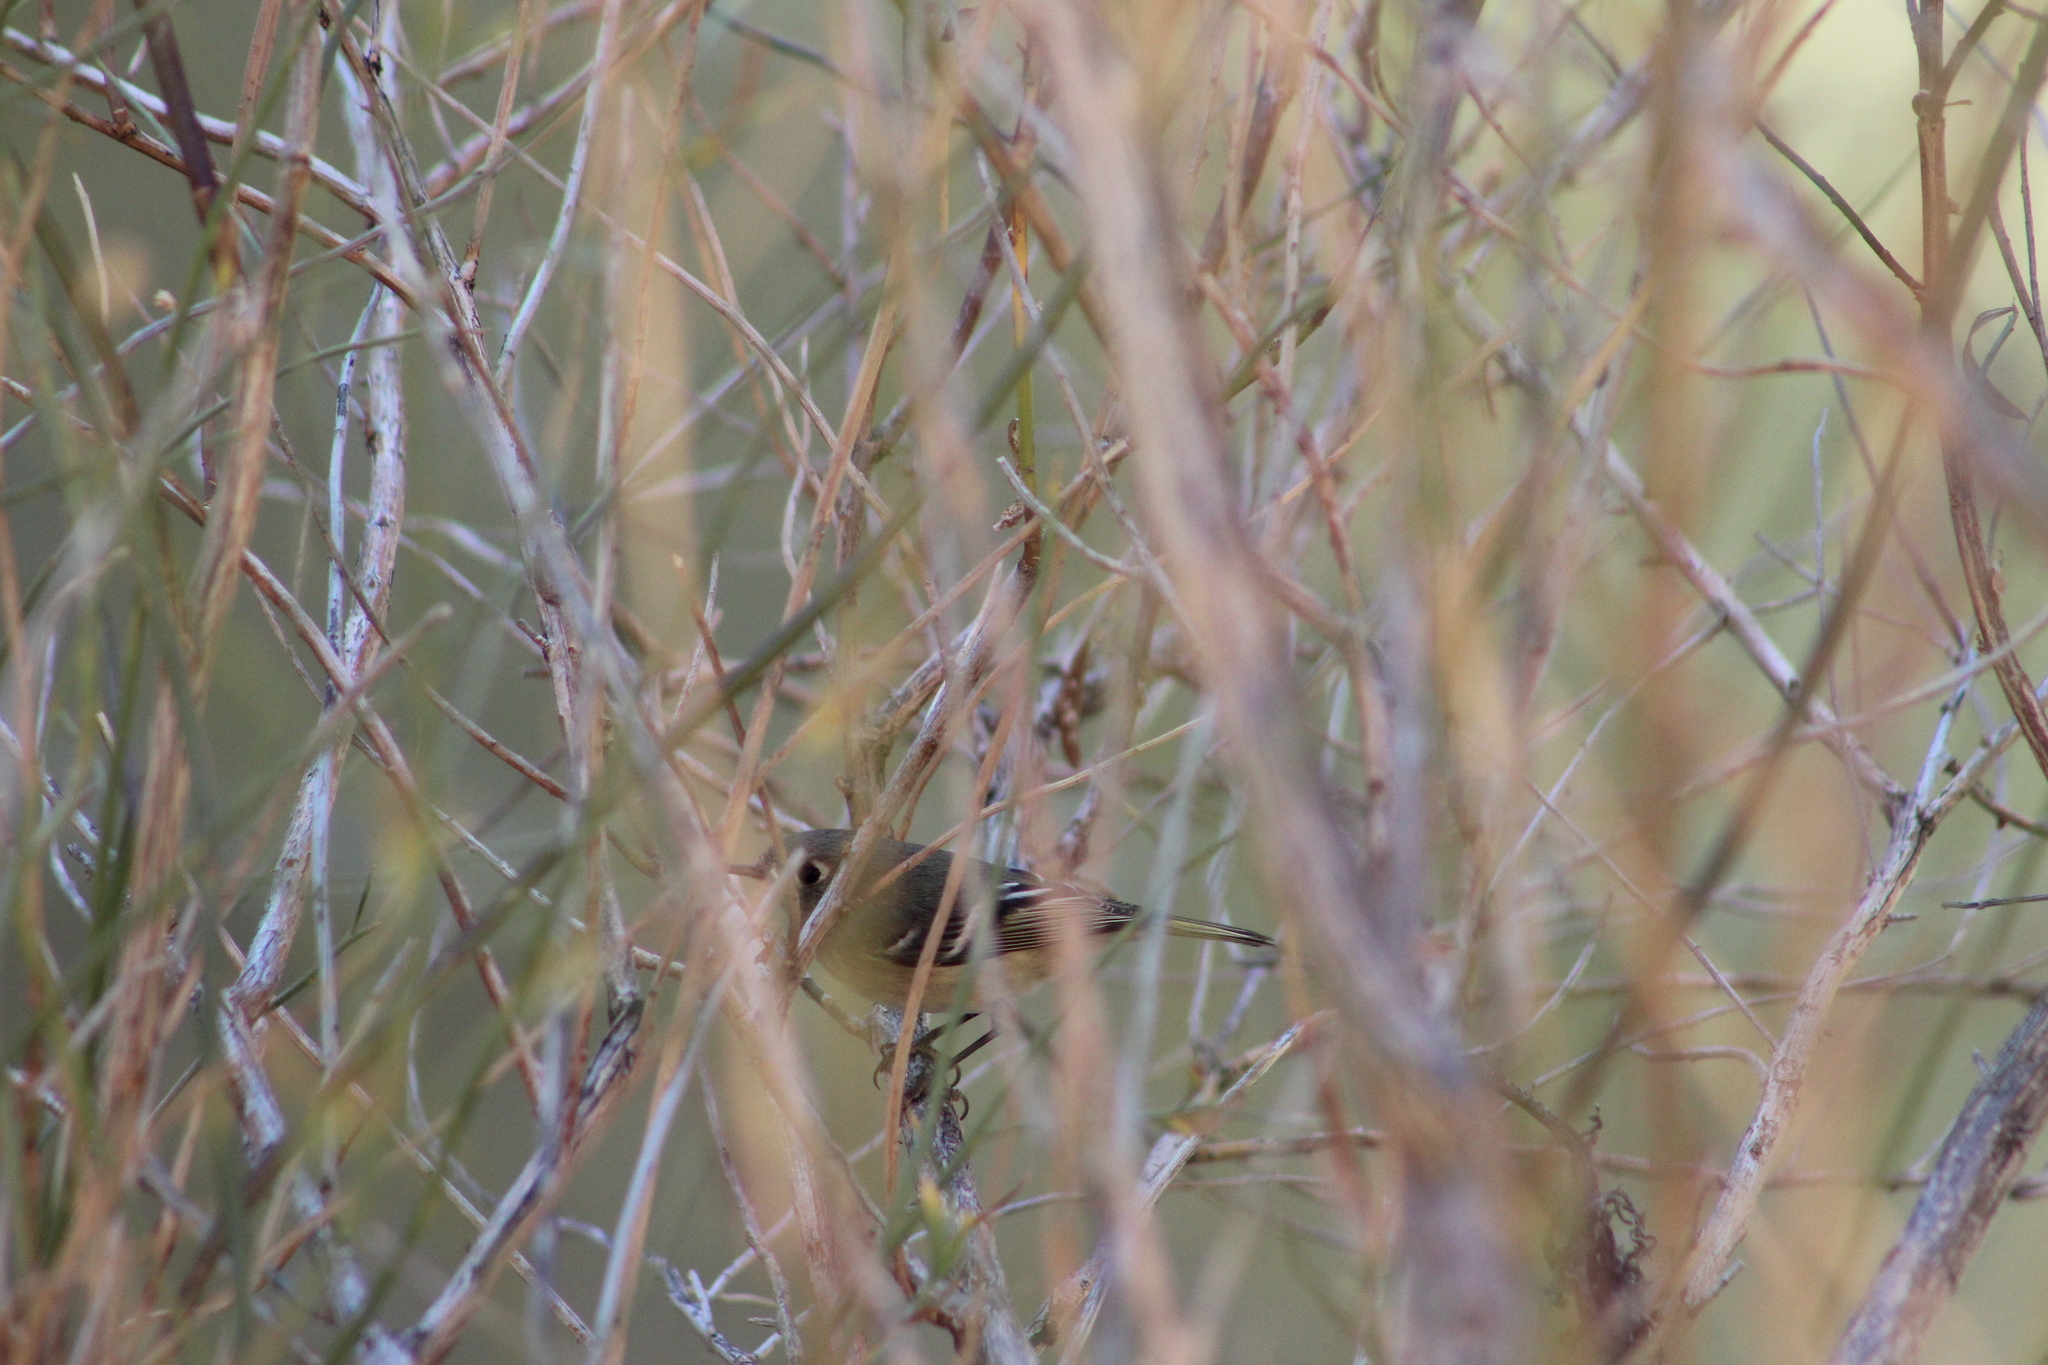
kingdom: Animalia
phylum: Chordata
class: Aves
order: Passeriformes
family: Regulidae
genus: Regulus
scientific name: Regulus calendula
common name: Ruby-crowned kinglet
